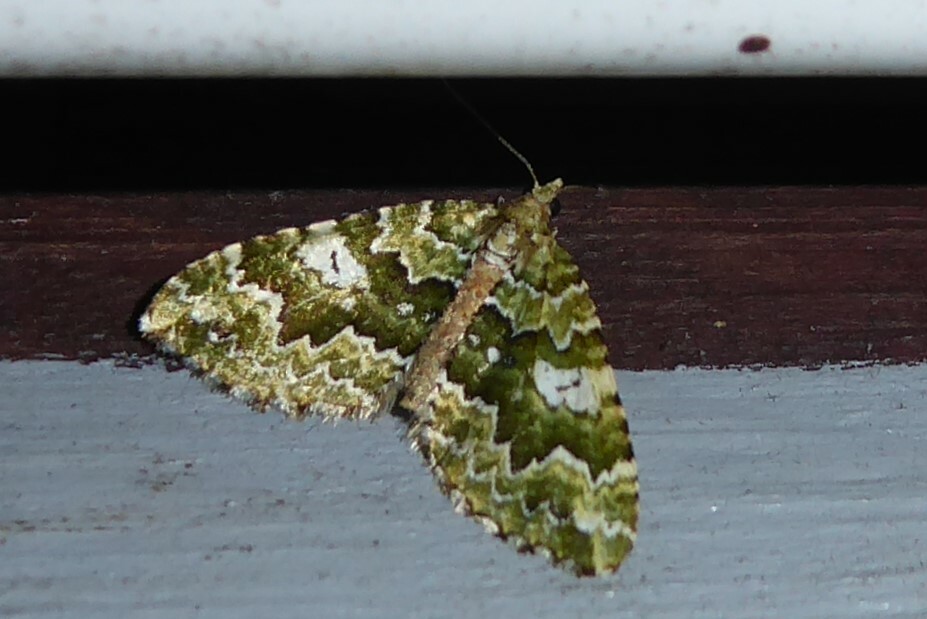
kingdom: Animalia
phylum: Arthropoda
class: Insecta
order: Lepidoptera
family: Geometridae
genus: Asaphodes
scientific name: Asaphodes beata
